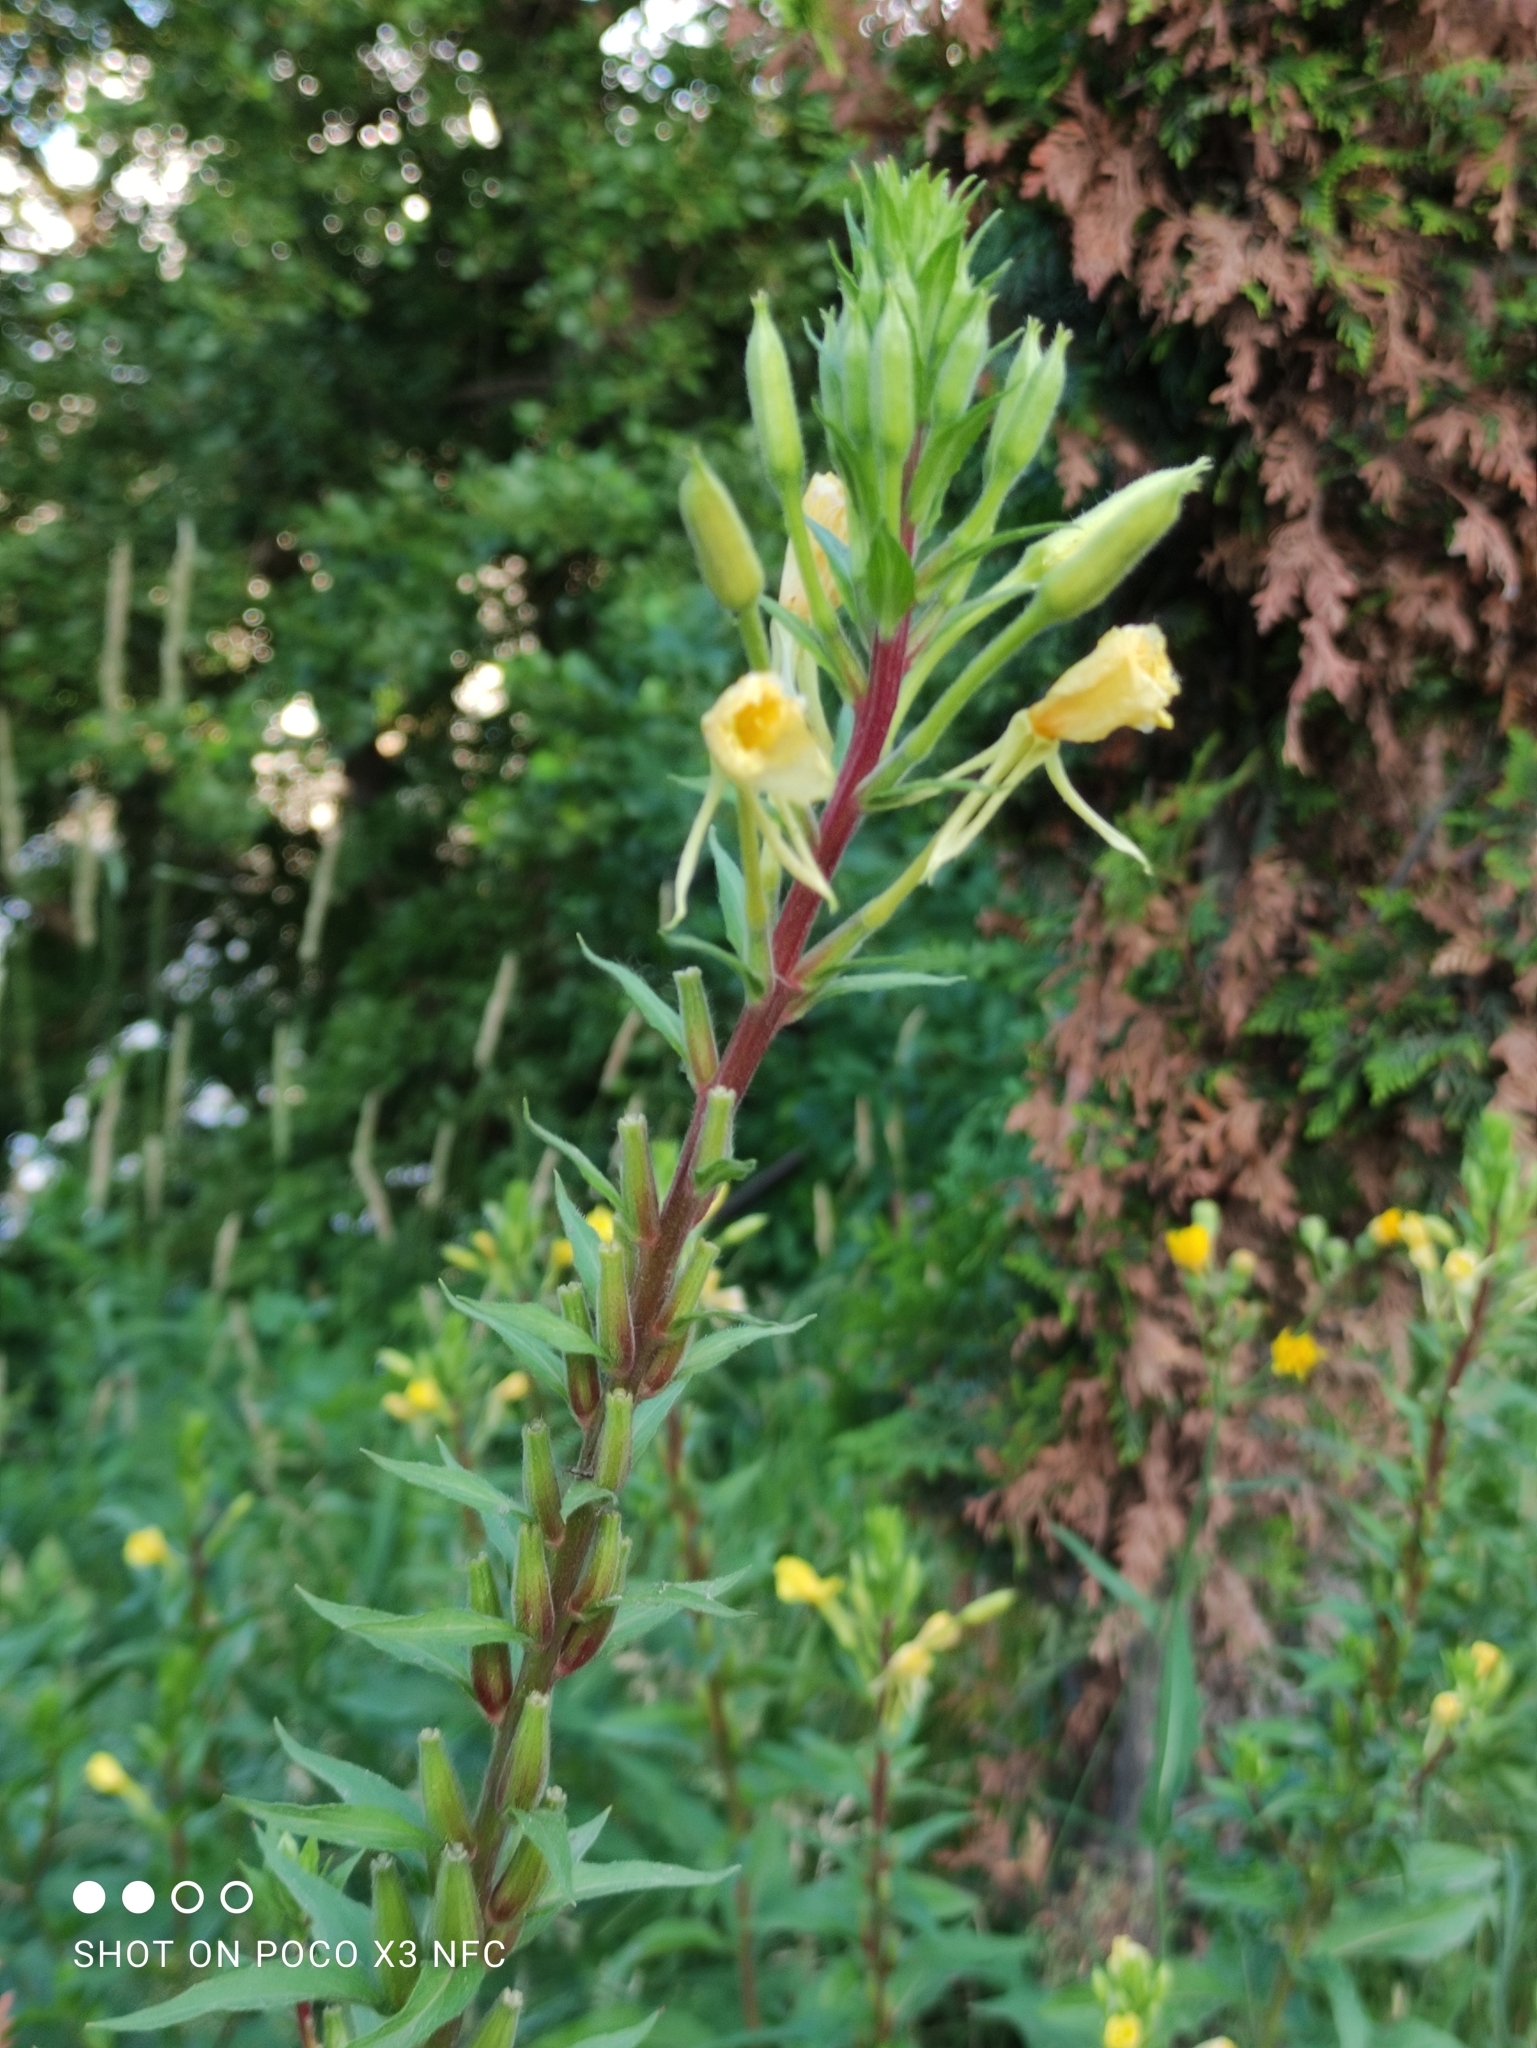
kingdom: Plantae
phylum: Tracheophyta
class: Magnoliopsida
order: Myrtales
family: Onagraceae
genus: Oenothera
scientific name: Oenothera rubricaulis
